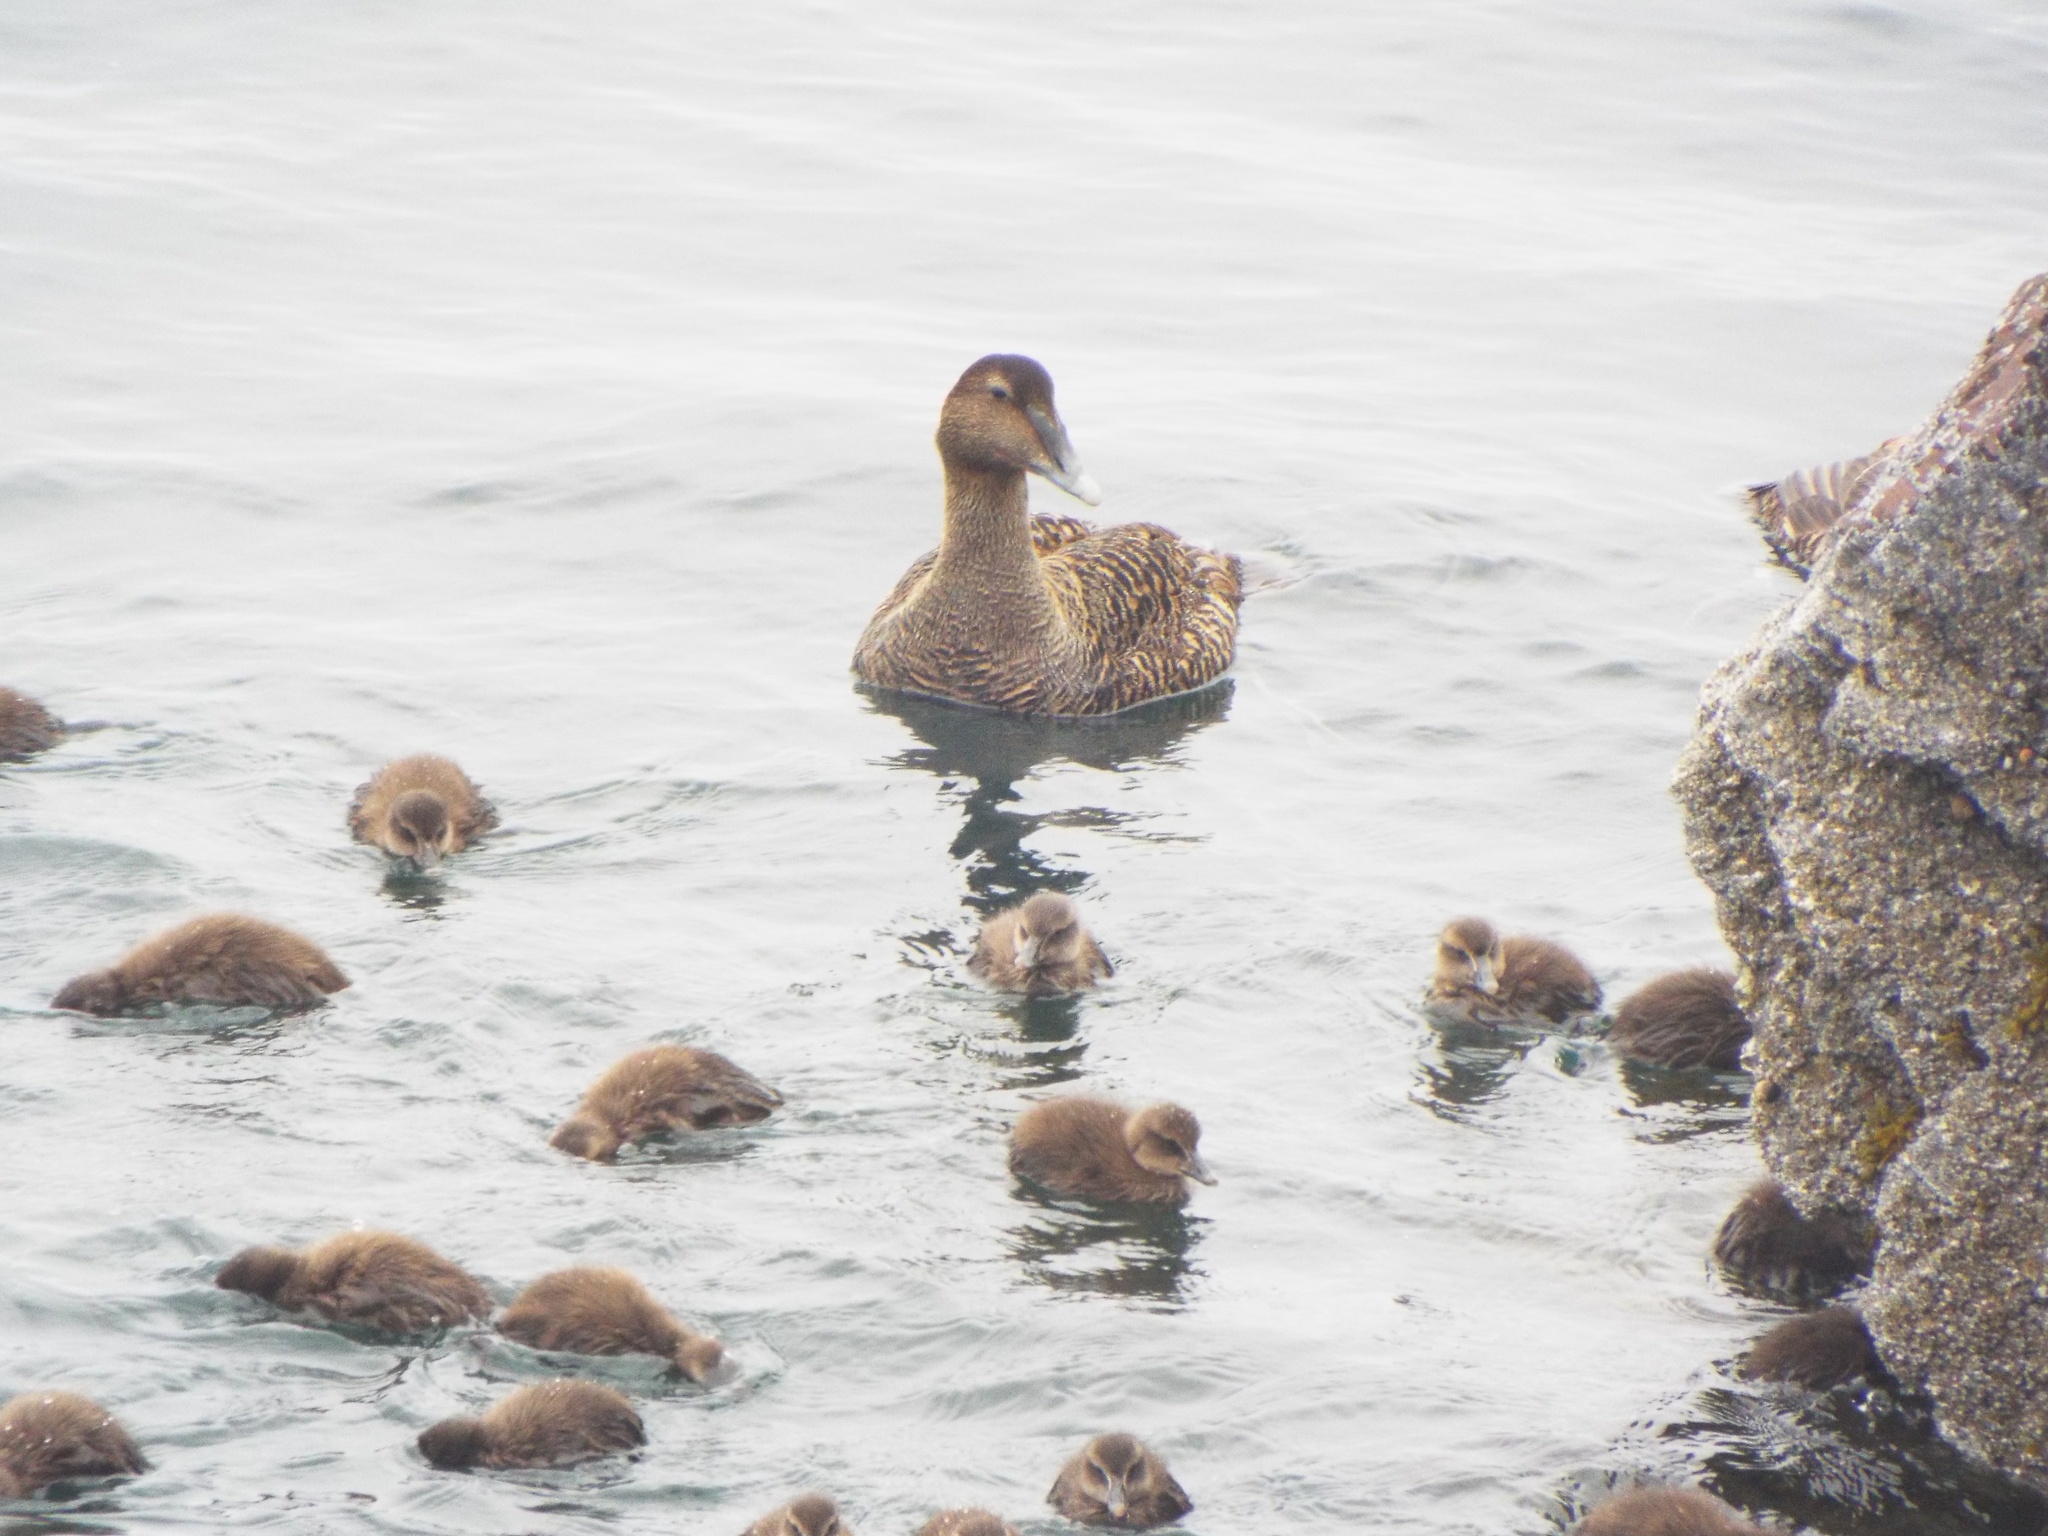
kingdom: Animalia
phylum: Chordata
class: Aves
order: Anseriformes
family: Anatidae
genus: Somateria
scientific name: Somateria mollissima
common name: Common eider
